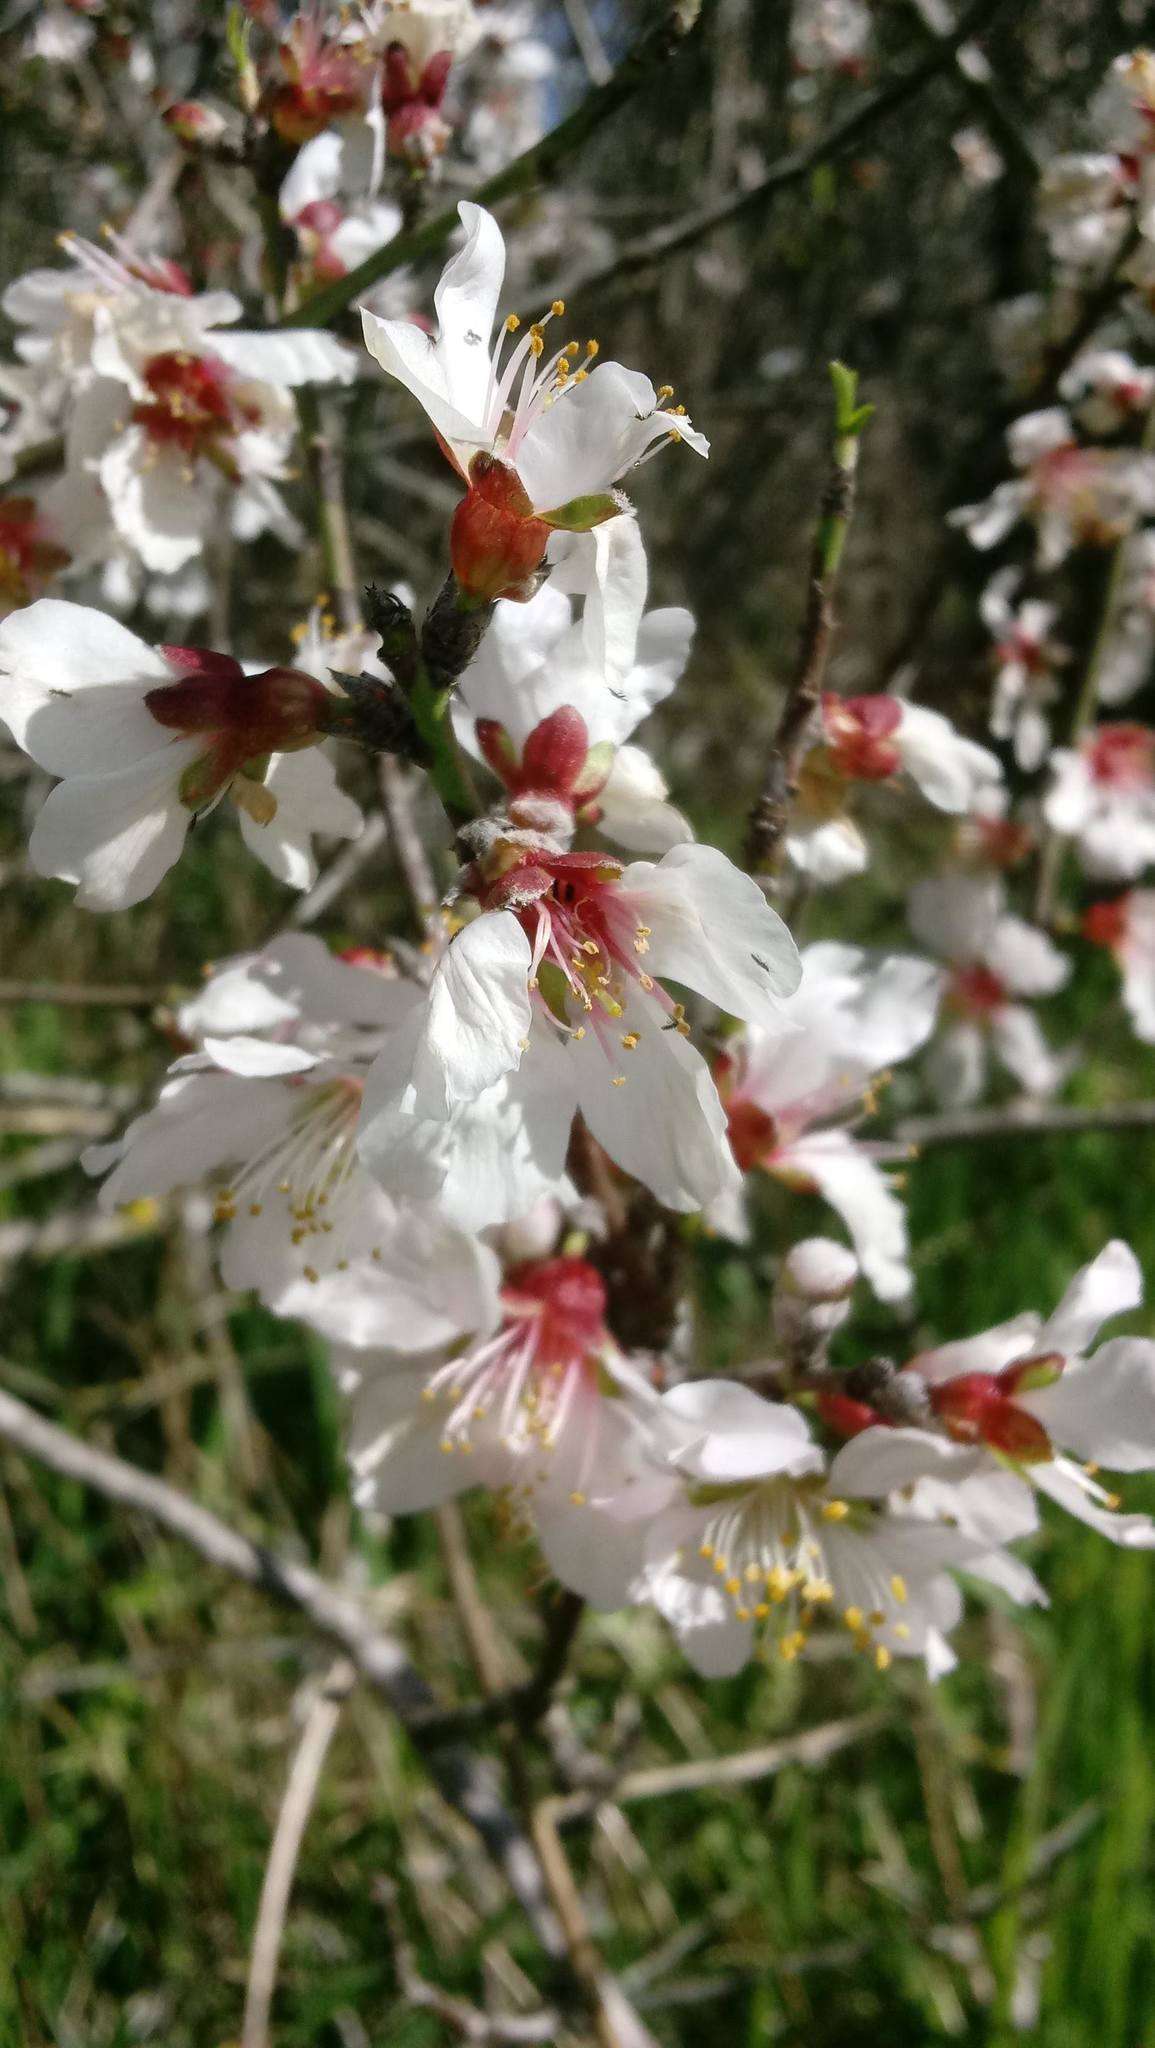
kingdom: Plantae
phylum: Tracheophyta
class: Magnoliopsida
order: Rosales
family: Rosaceae
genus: Prunus
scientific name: Prunus amygdalus
